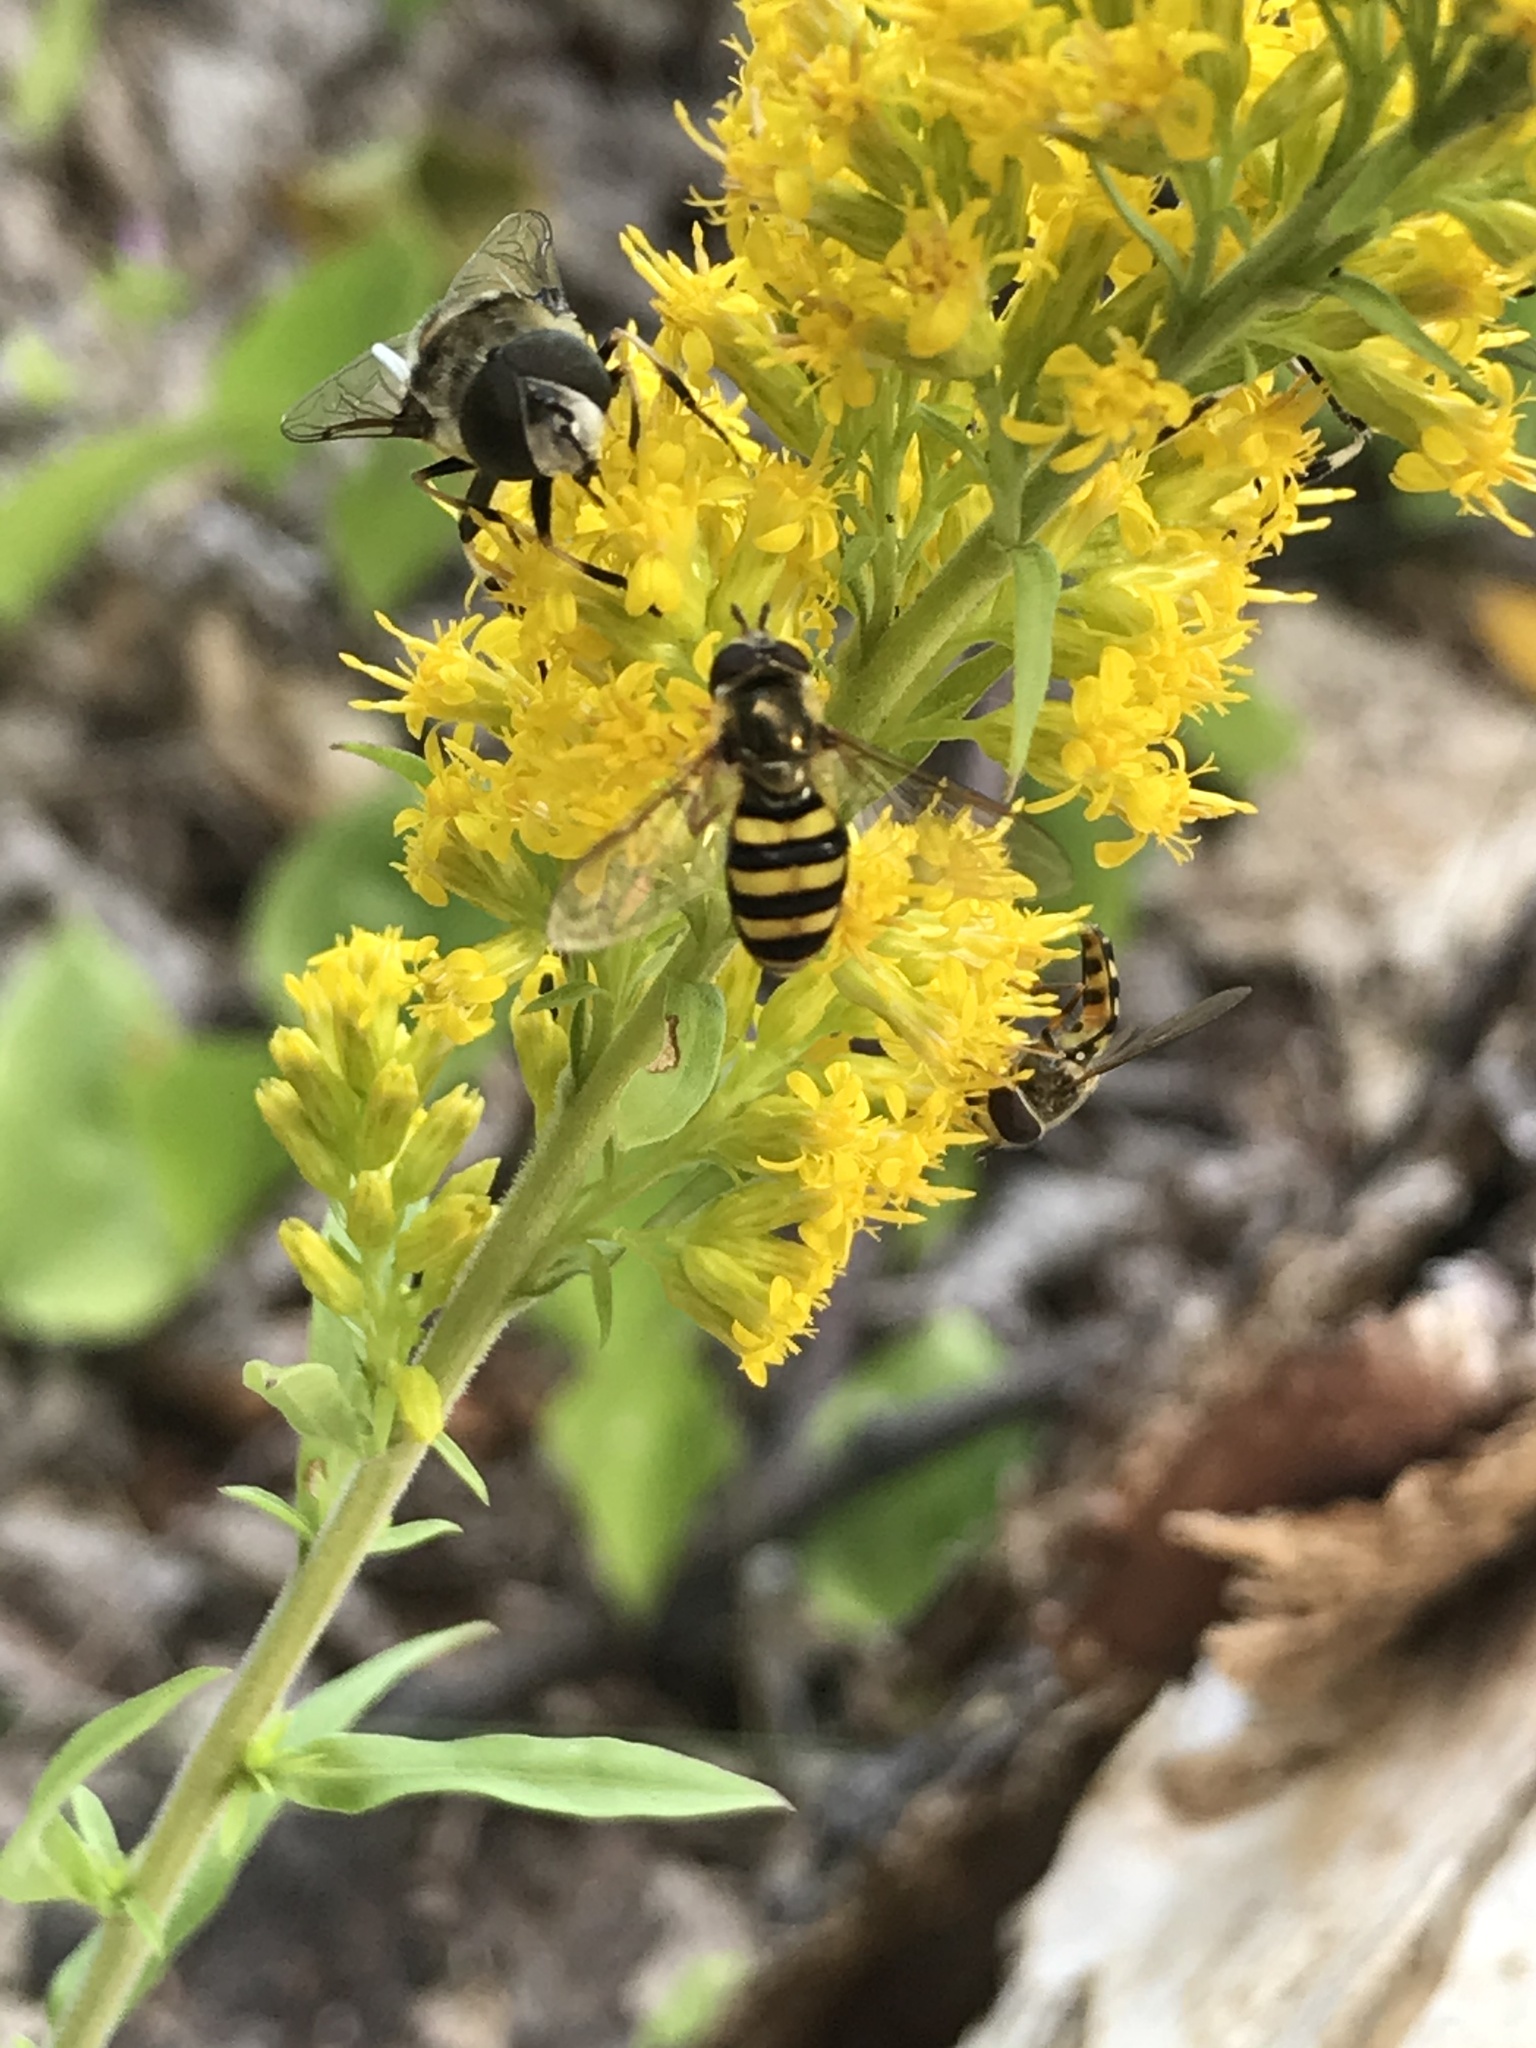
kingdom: Animalia
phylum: Arthropoda
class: Insecta
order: Diptera
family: Syrphidae
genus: Eupeodes
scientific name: Eupeodes
